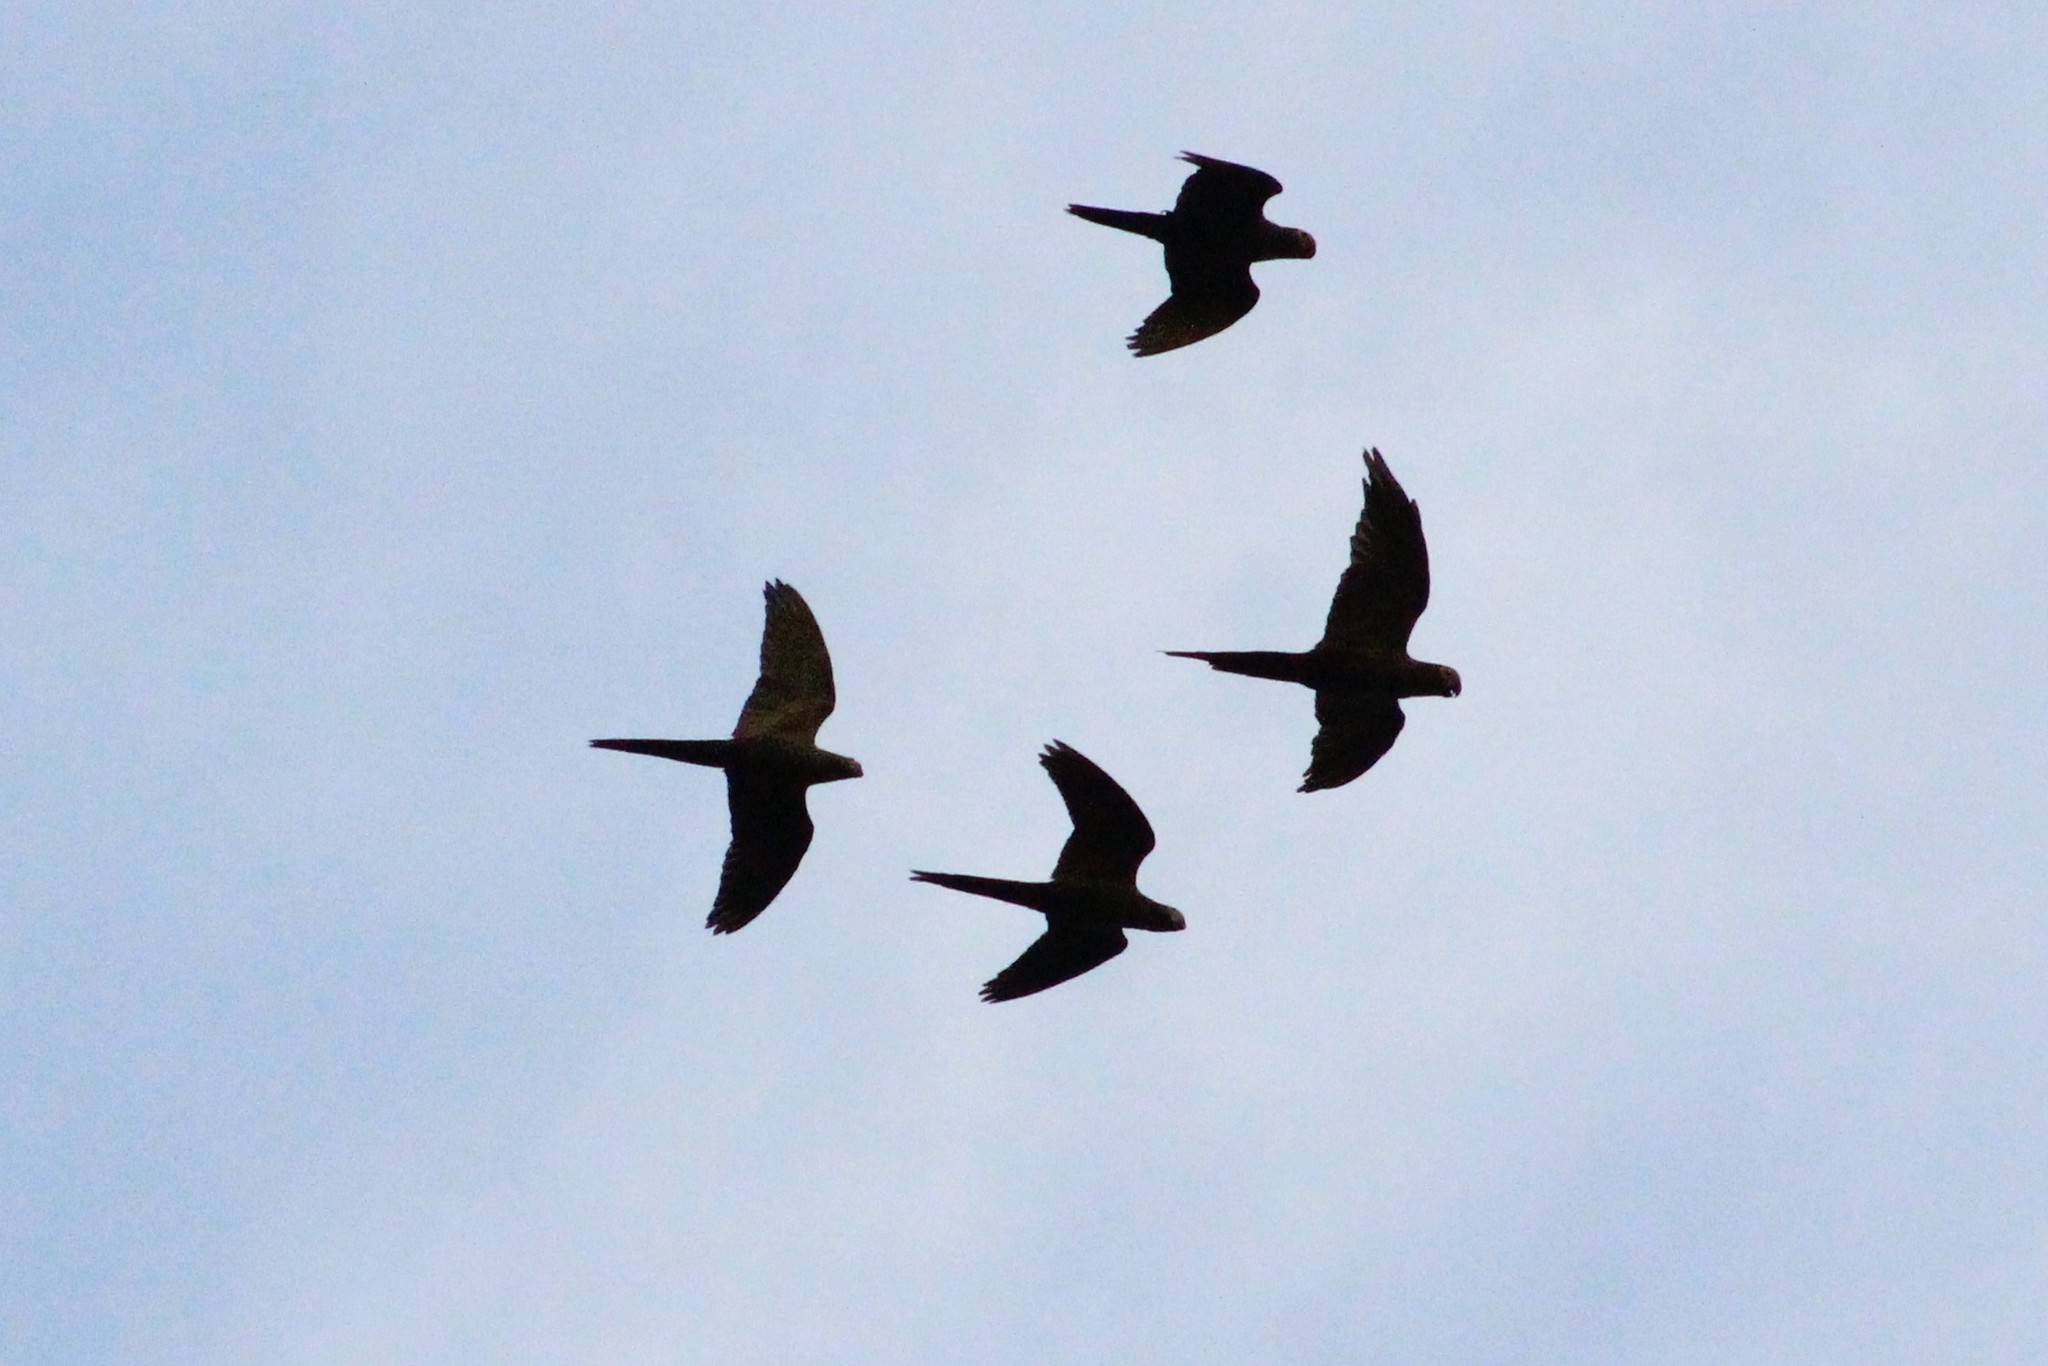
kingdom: Animalia
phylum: Chordata
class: Aves
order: Psittaciformes
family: Psittacidae
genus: Ara
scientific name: Ara severus
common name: Chestnut-fronted macaw
